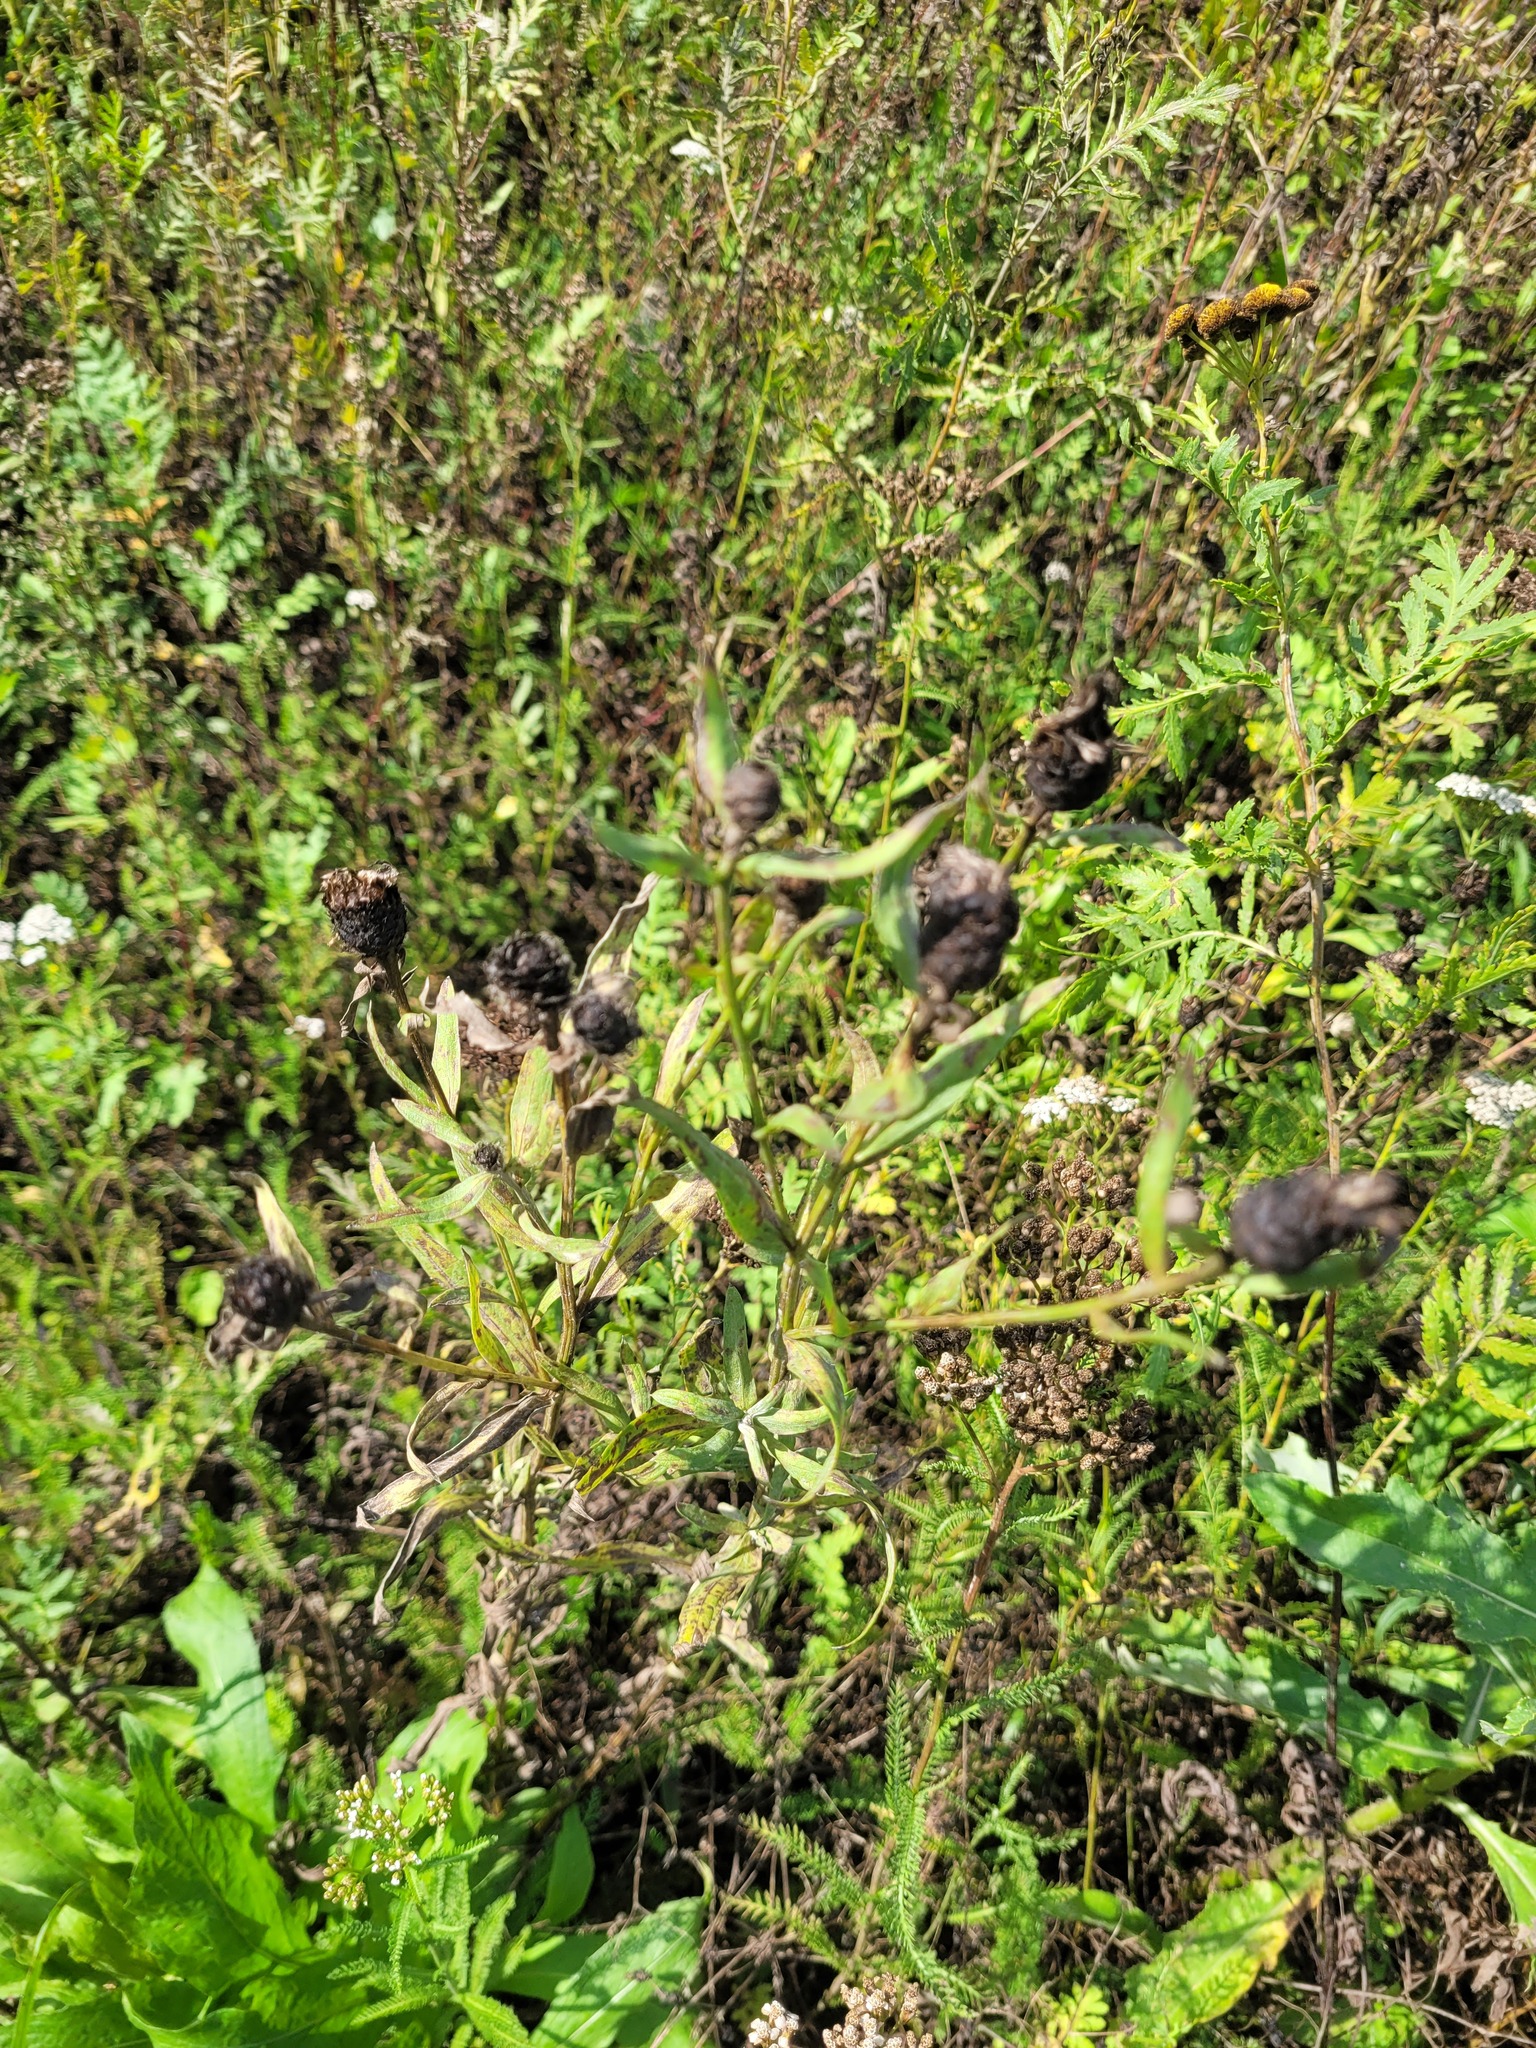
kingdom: Plantae
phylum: Tracheophyta
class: Magnoliopsida
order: Asterales
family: Asteraceae
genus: Centaurea
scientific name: Centaurea jacea
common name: Brown knapweed
